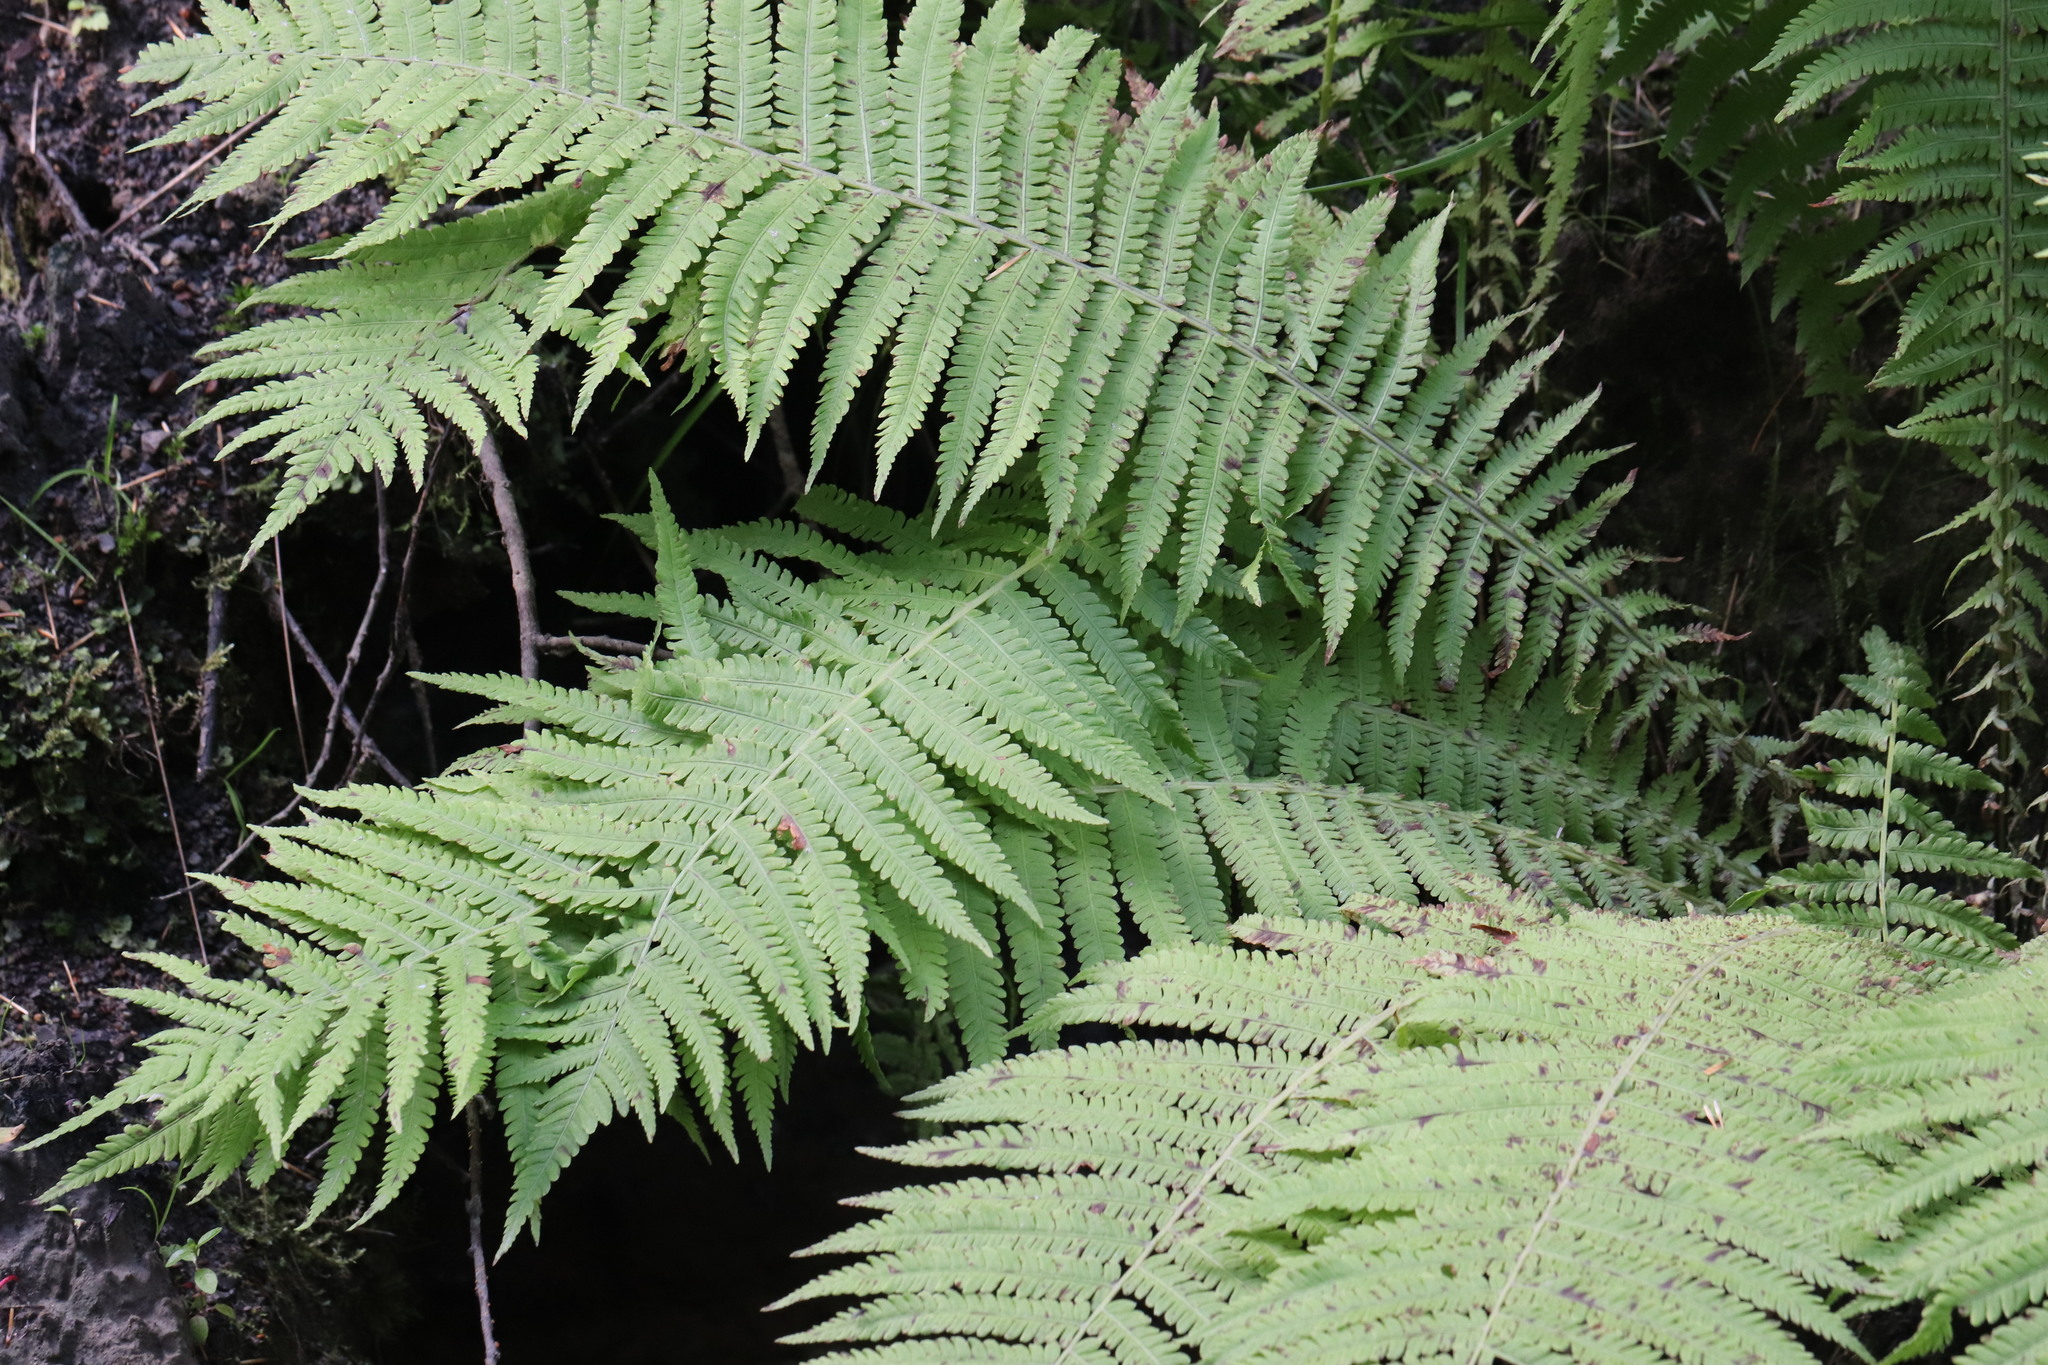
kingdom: Plantae
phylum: Tracheophyta
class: Polypodiopsida
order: Polypodiales
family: Onocleaceae
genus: Matteuccia
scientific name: Matteuccia struthiopteris
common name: Ostrich fern
